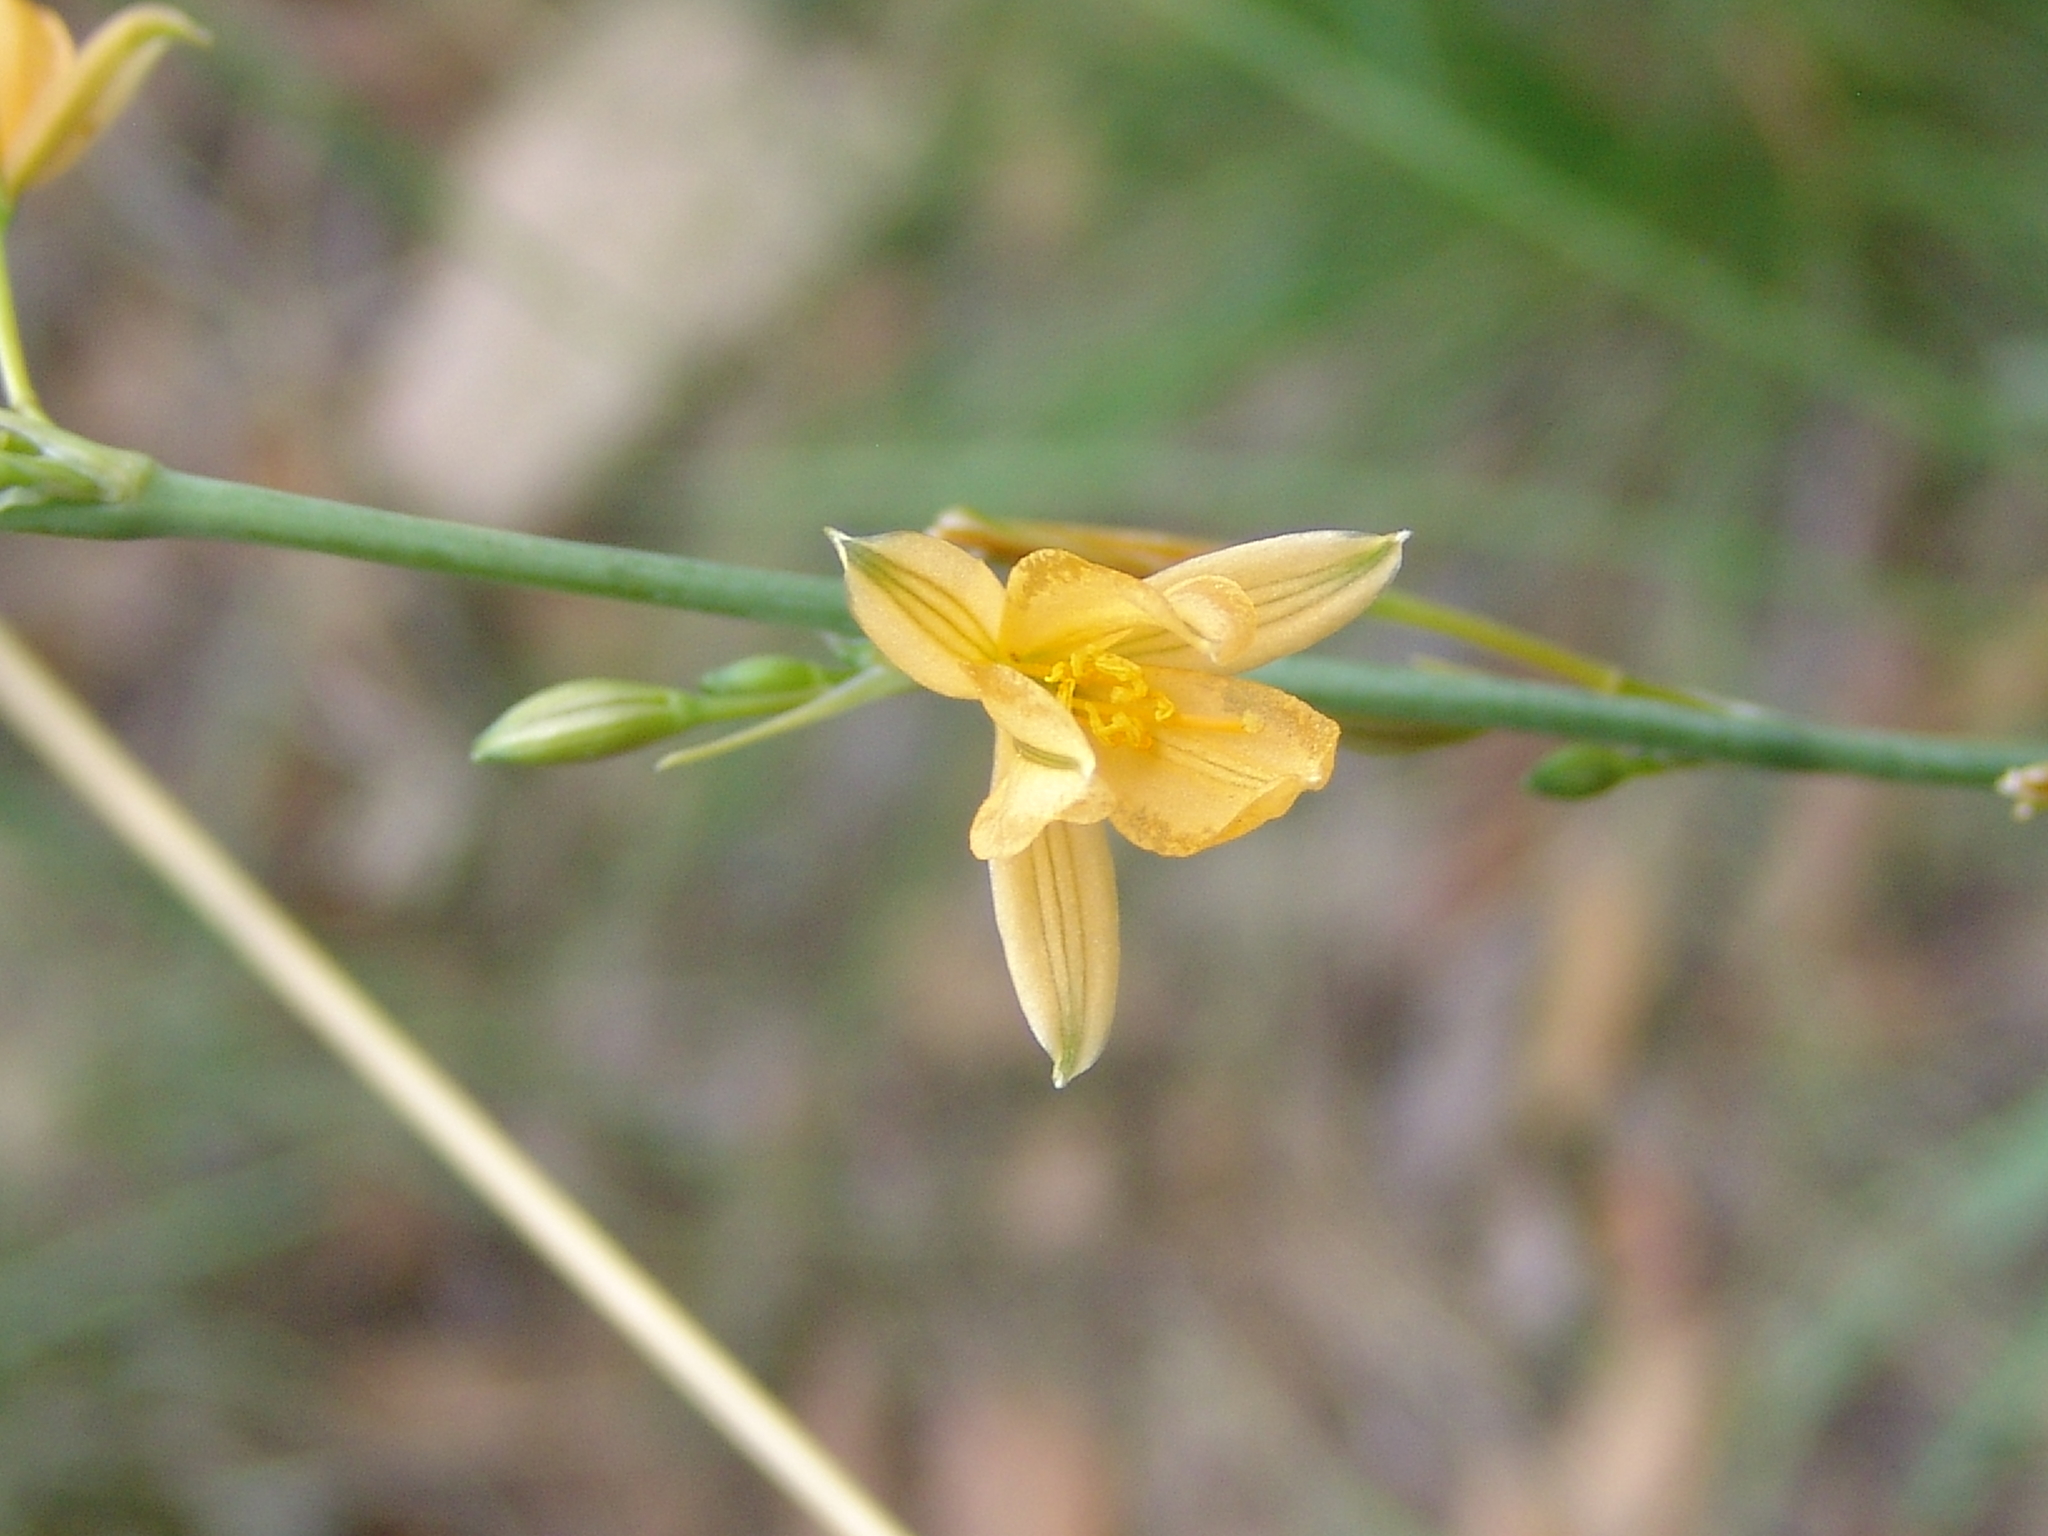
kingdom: Plantae
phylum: Tracheophyta
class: Liliopsida
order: Asparagales
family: Asparagaceae
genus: Echeandia
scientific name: Echeandia flavescens
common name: Amberlily
